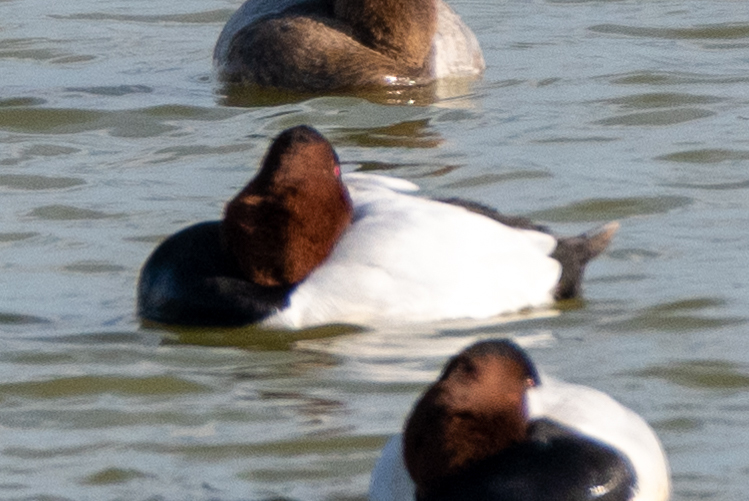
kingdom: Animalia
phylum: Chordata
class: Aves
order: Anseriformes
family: Anatidae
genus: Aythya
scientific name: Aythya valisineria
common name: Canvasback
